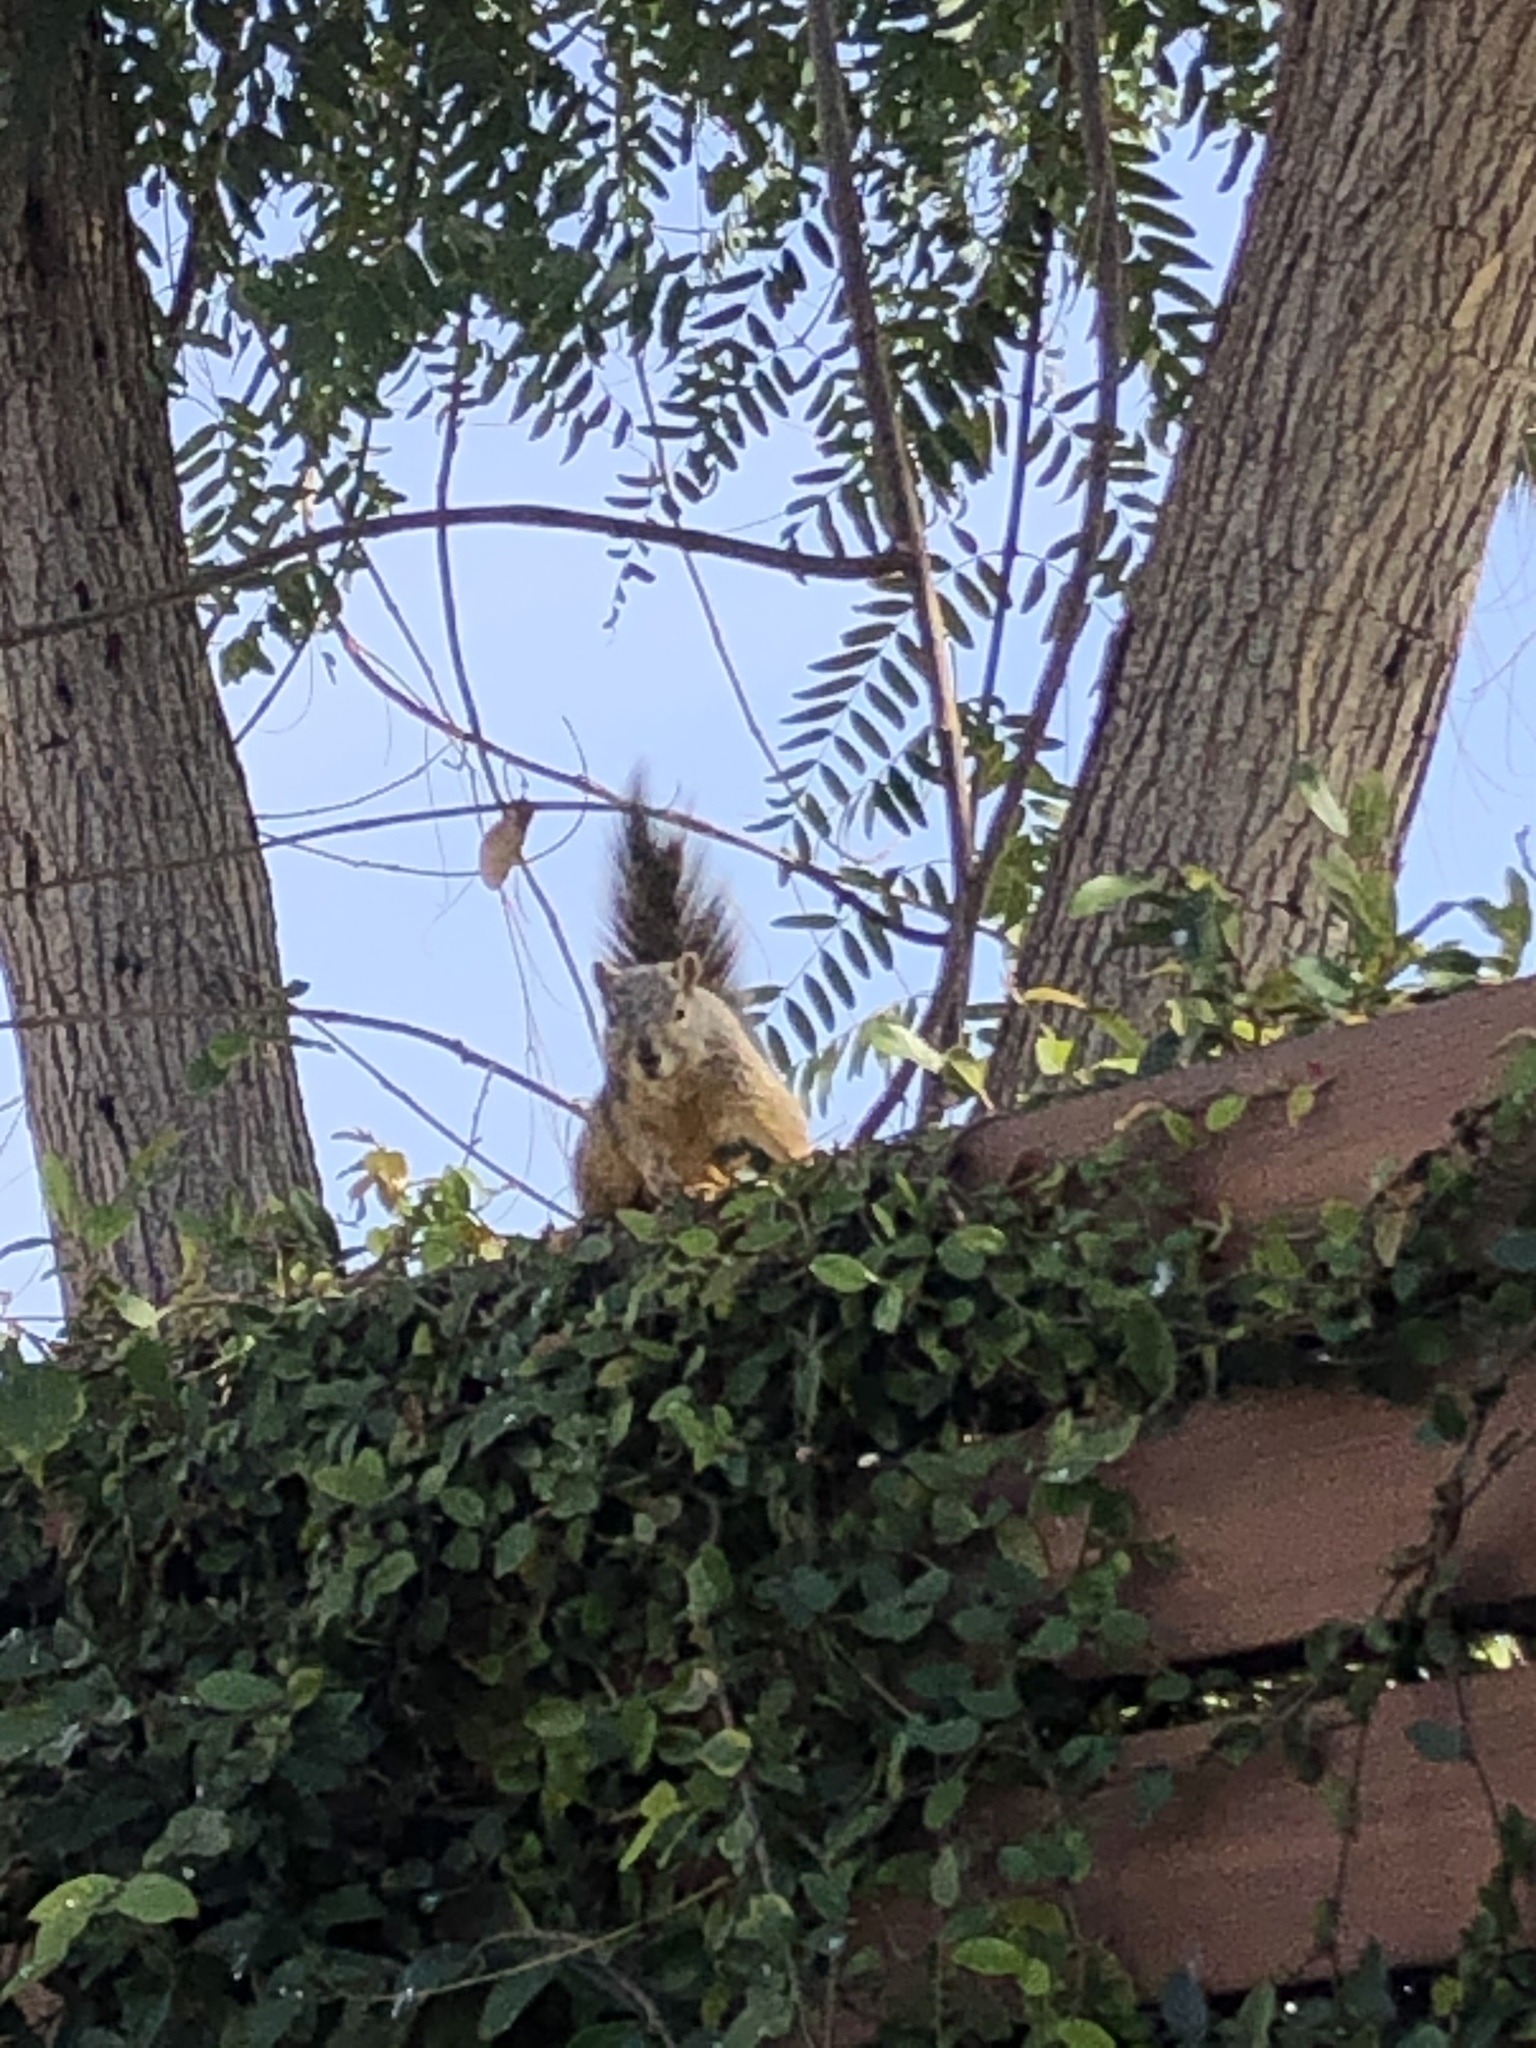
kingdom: Animalia
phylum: Chordata
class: Mammalia
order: Rodentia
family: Sciuridae
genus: Sciurus
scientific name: Sciurus niger
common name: Fox squirrel
